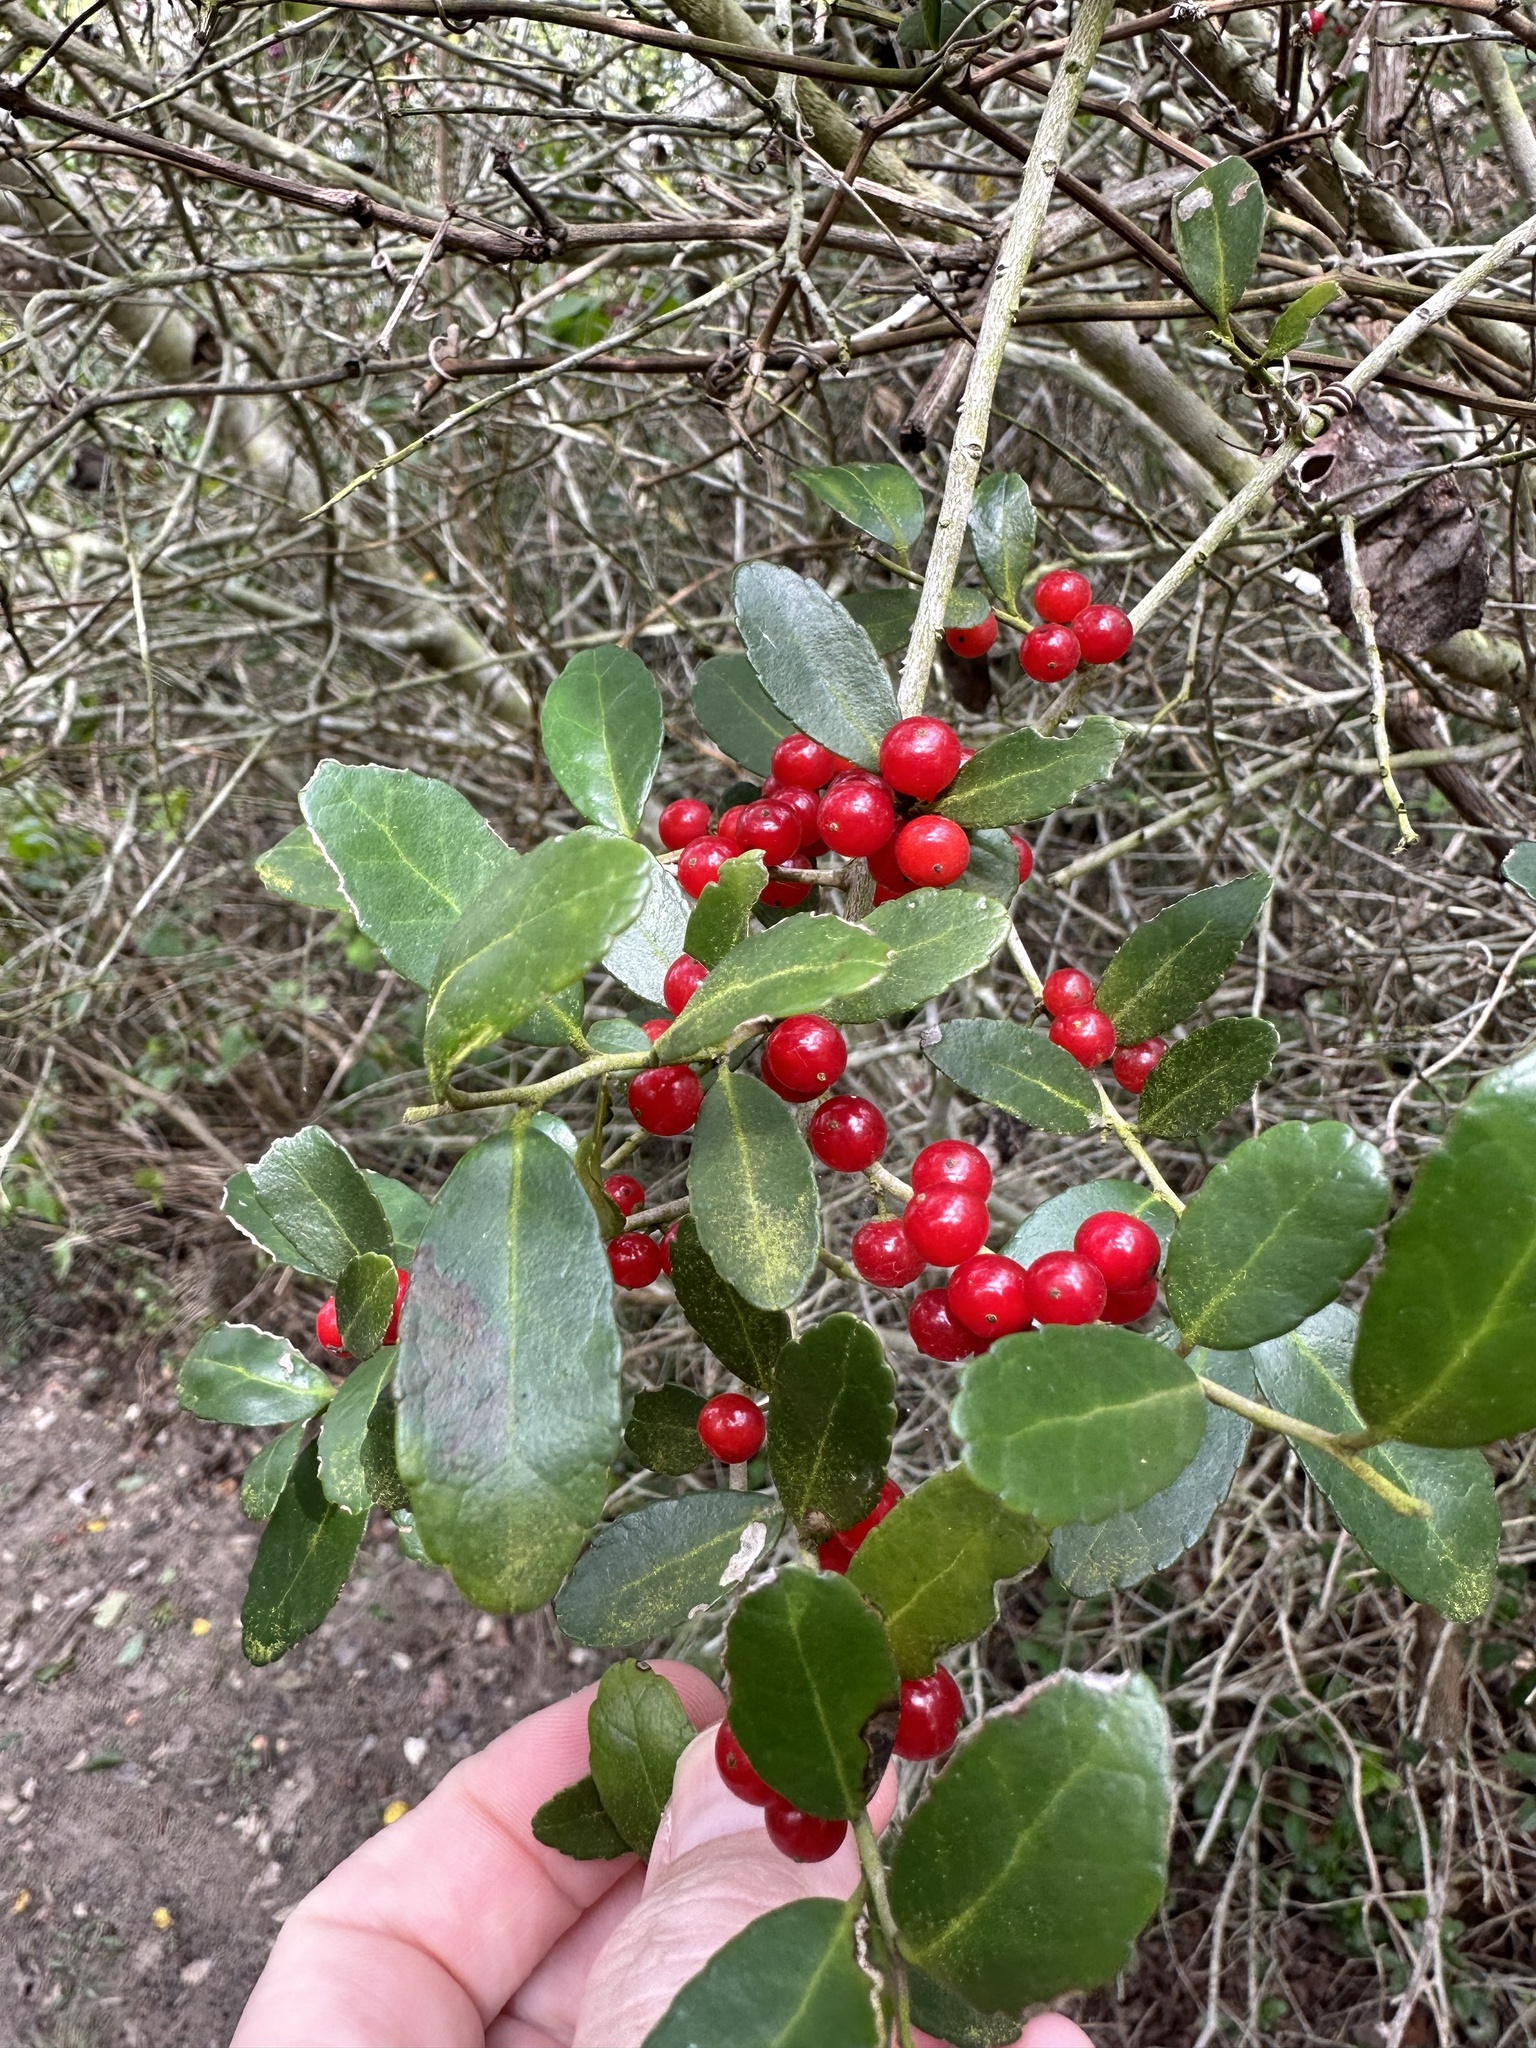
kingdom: Plantae
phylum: Tracheophyta
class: Magnoliopsida
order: Aquifoliales
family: Aquifoliaceae
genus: Ilex
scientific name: Ilex vomitoria
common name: Yaupon holly
